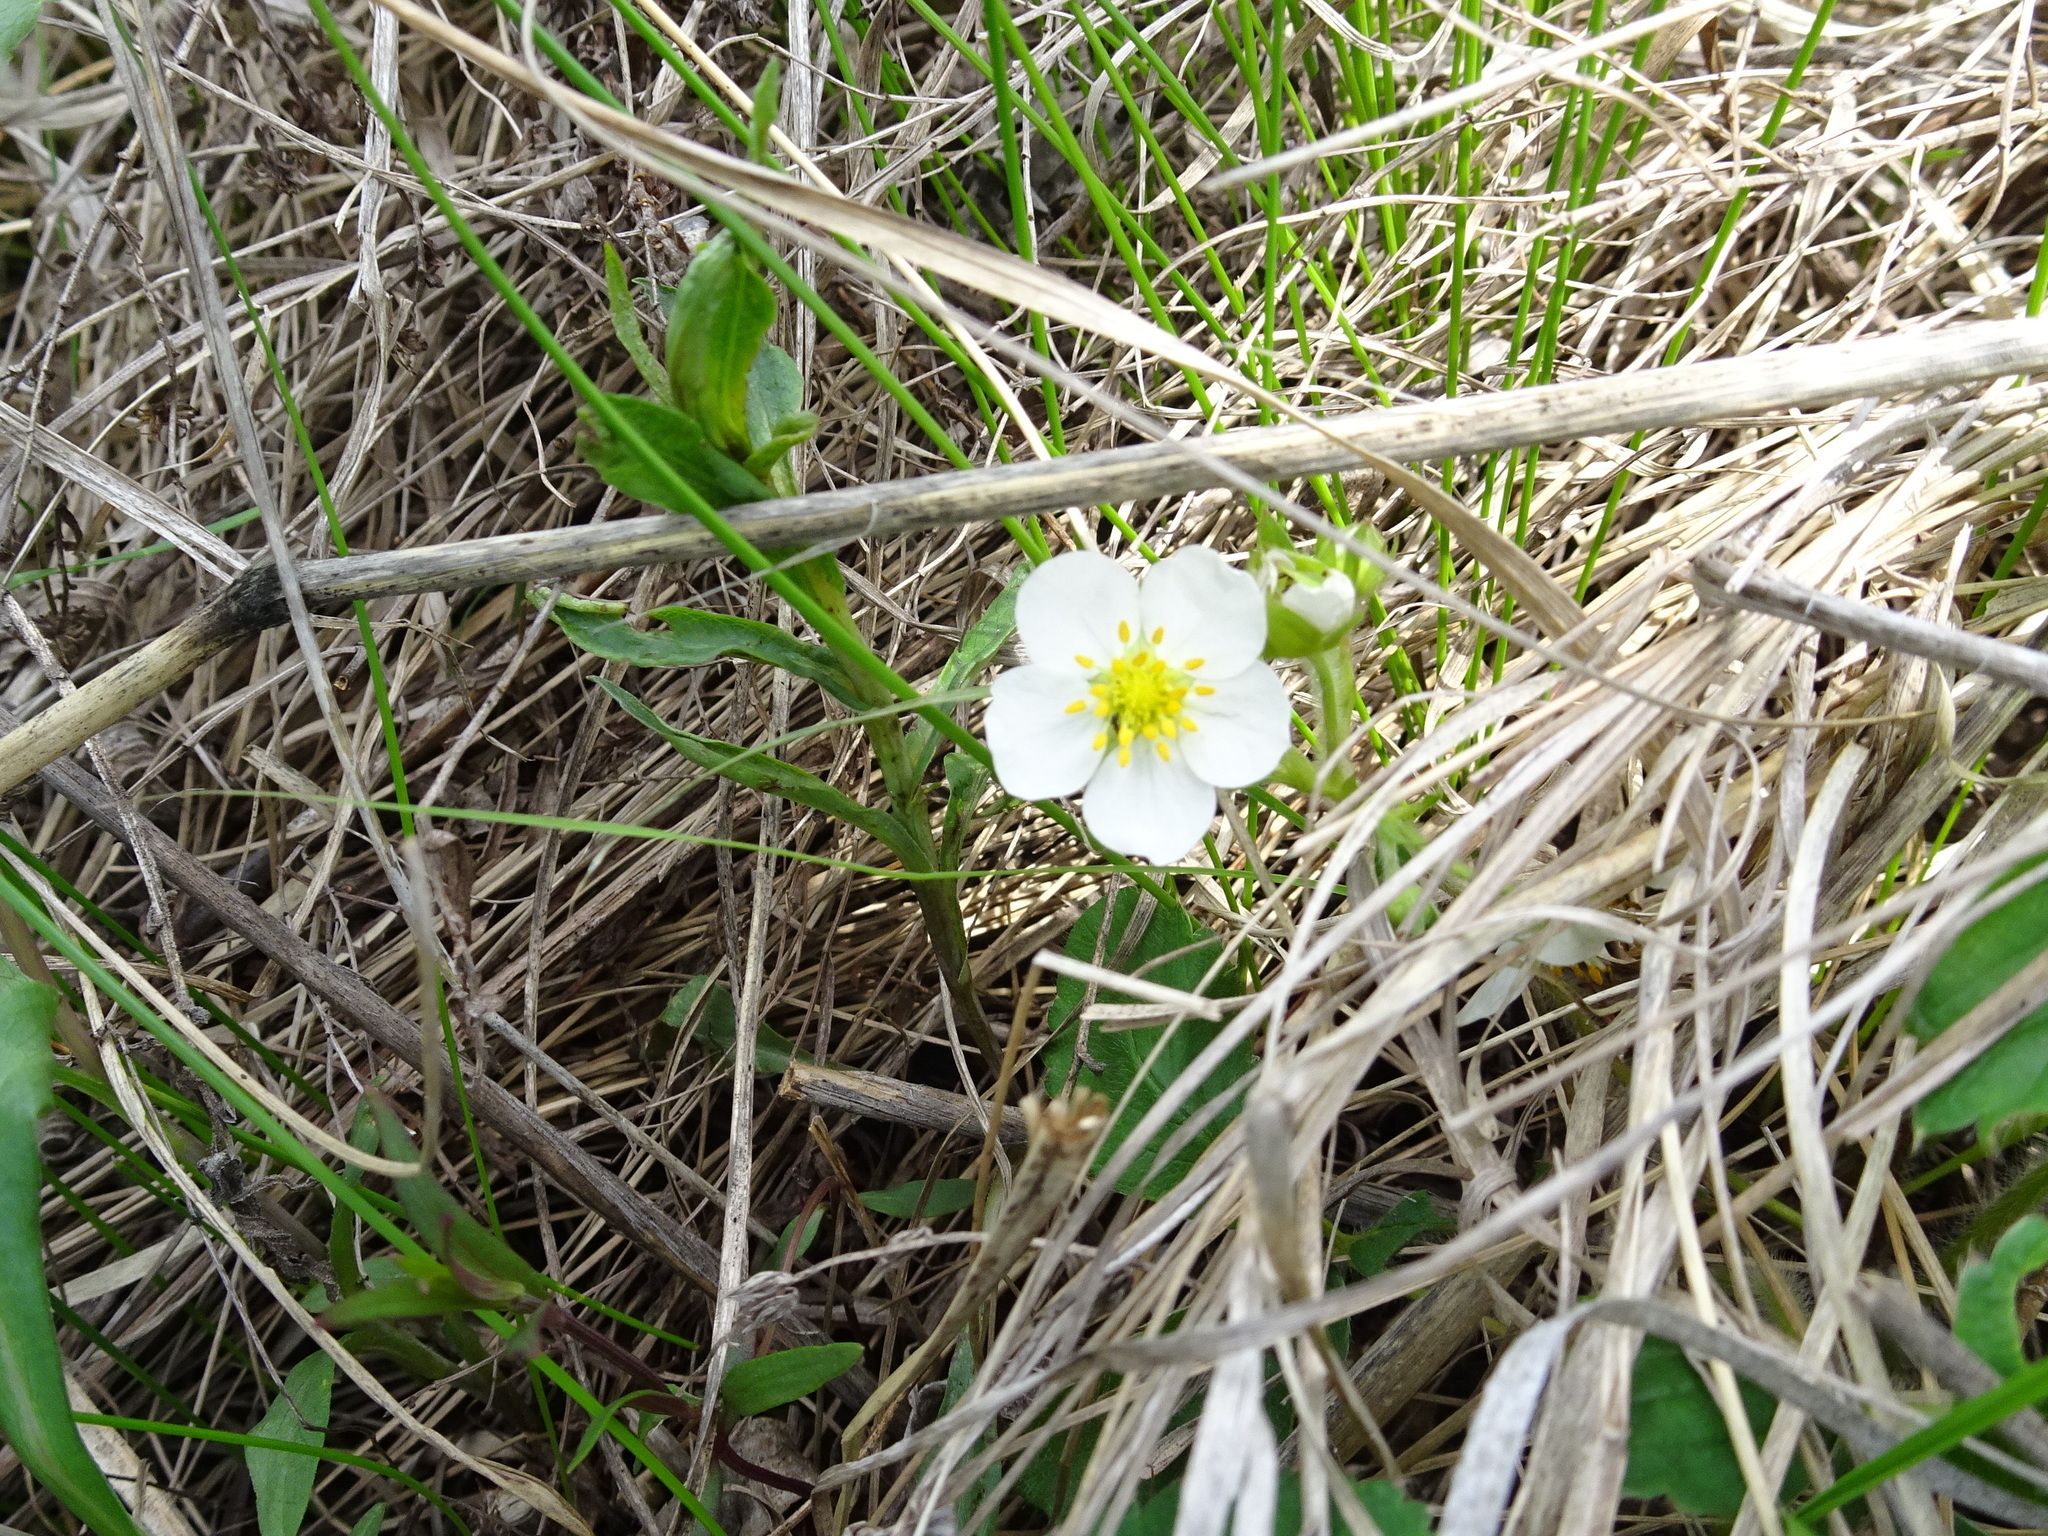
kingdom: Plantae
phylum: Tracheophyta
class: Magnoliopsida
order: Rosales
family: Rosaceae
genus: Fragaria
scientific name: Fragaria virginiana
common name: Thickleaved wild strawberry
